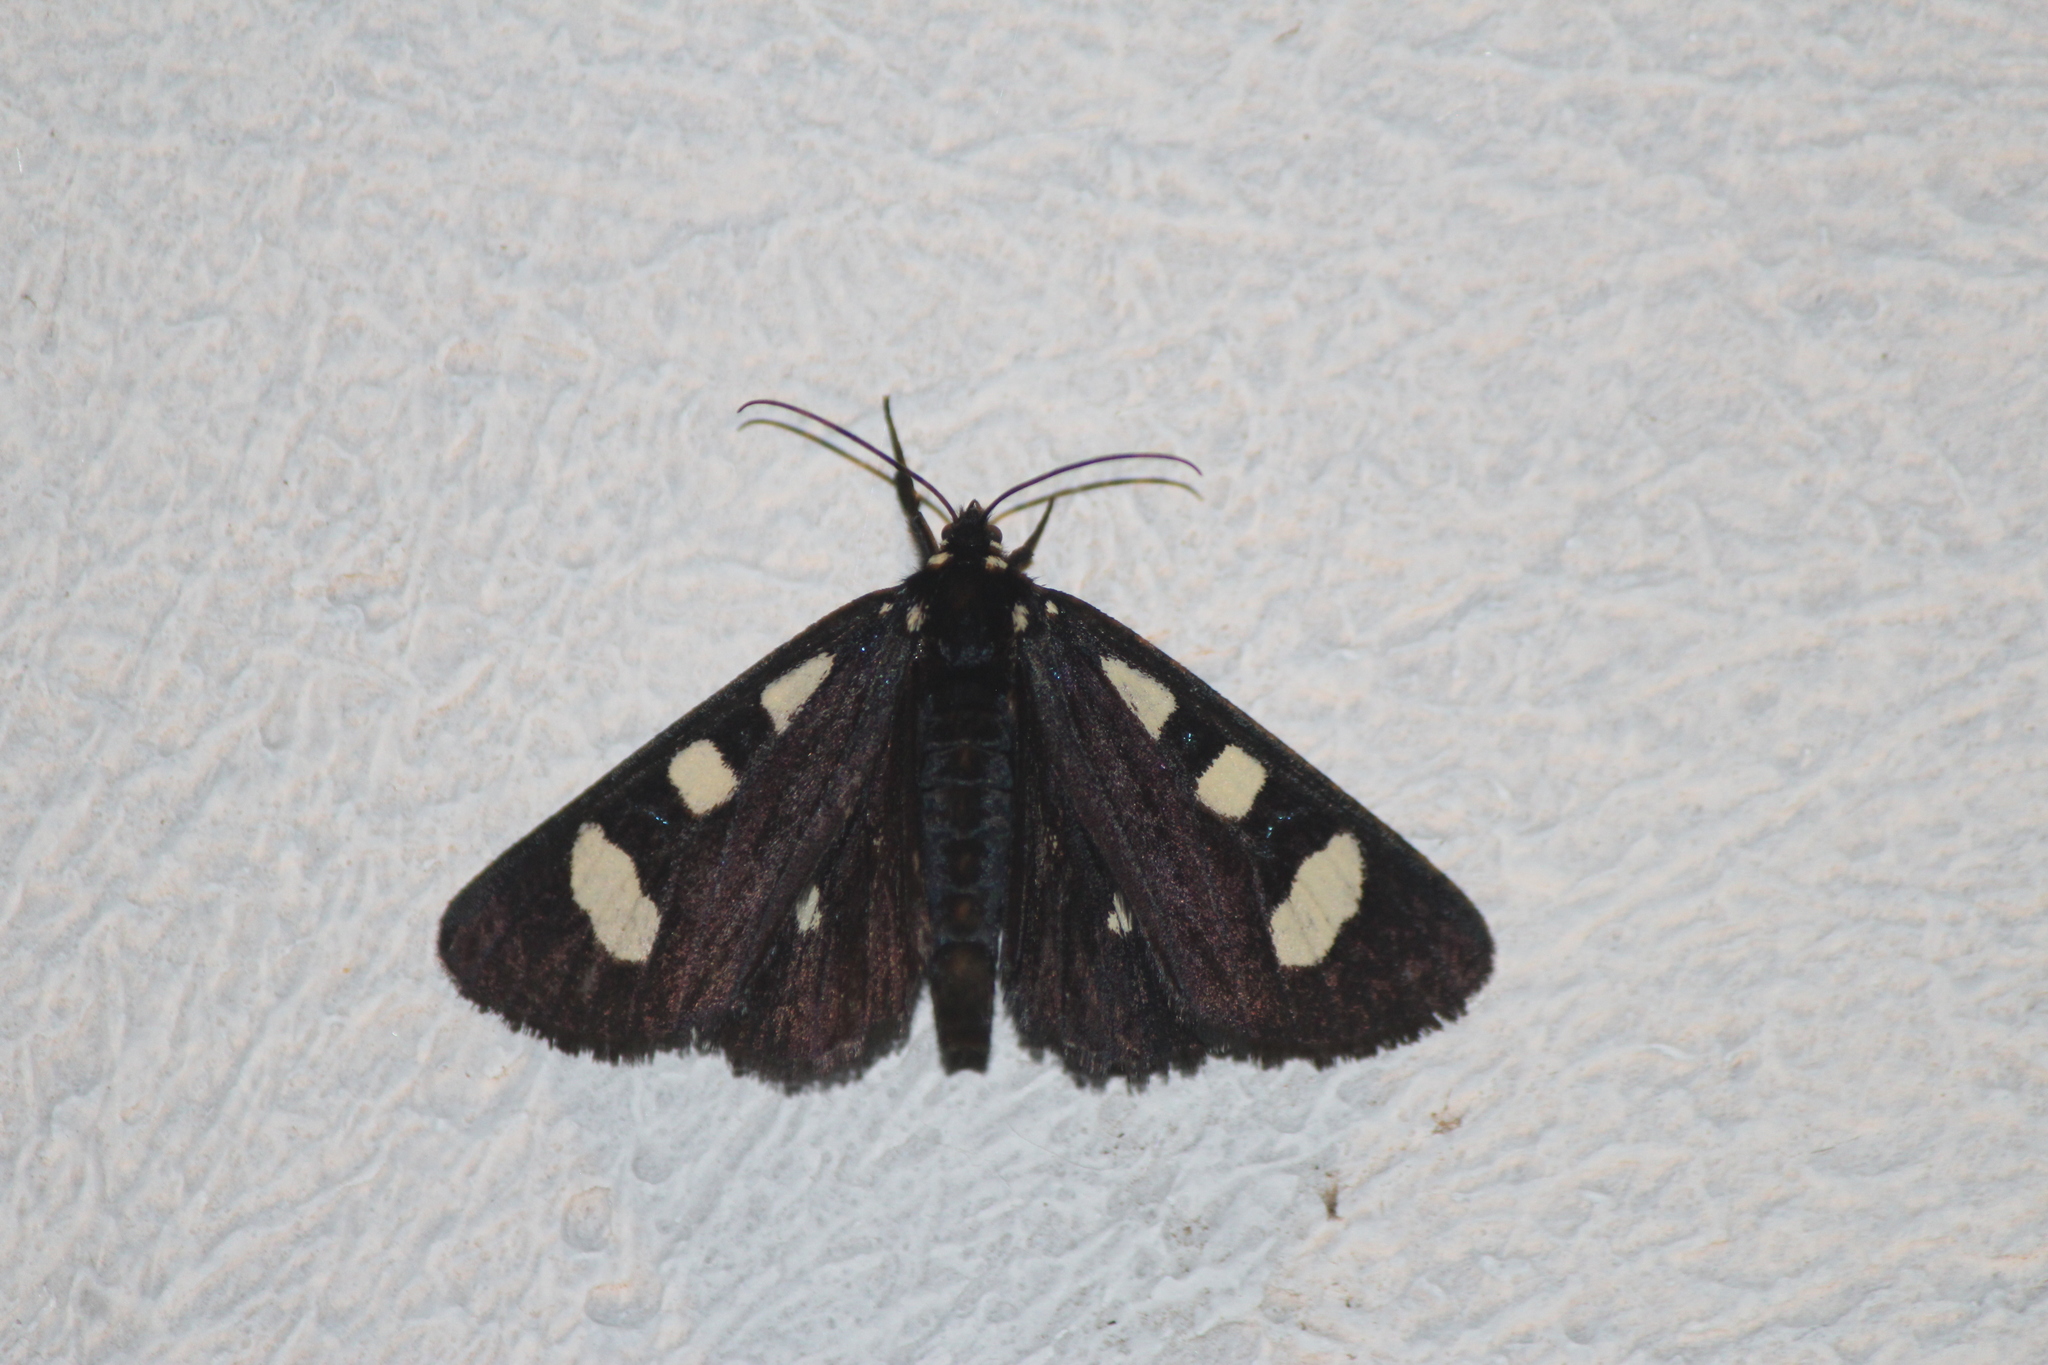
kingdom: Animalia
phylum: Arthropoda
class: Insecta
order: Lepidoptera
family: Noctuidae
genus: Alypiodes
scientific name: Alypiodes bimaculata
